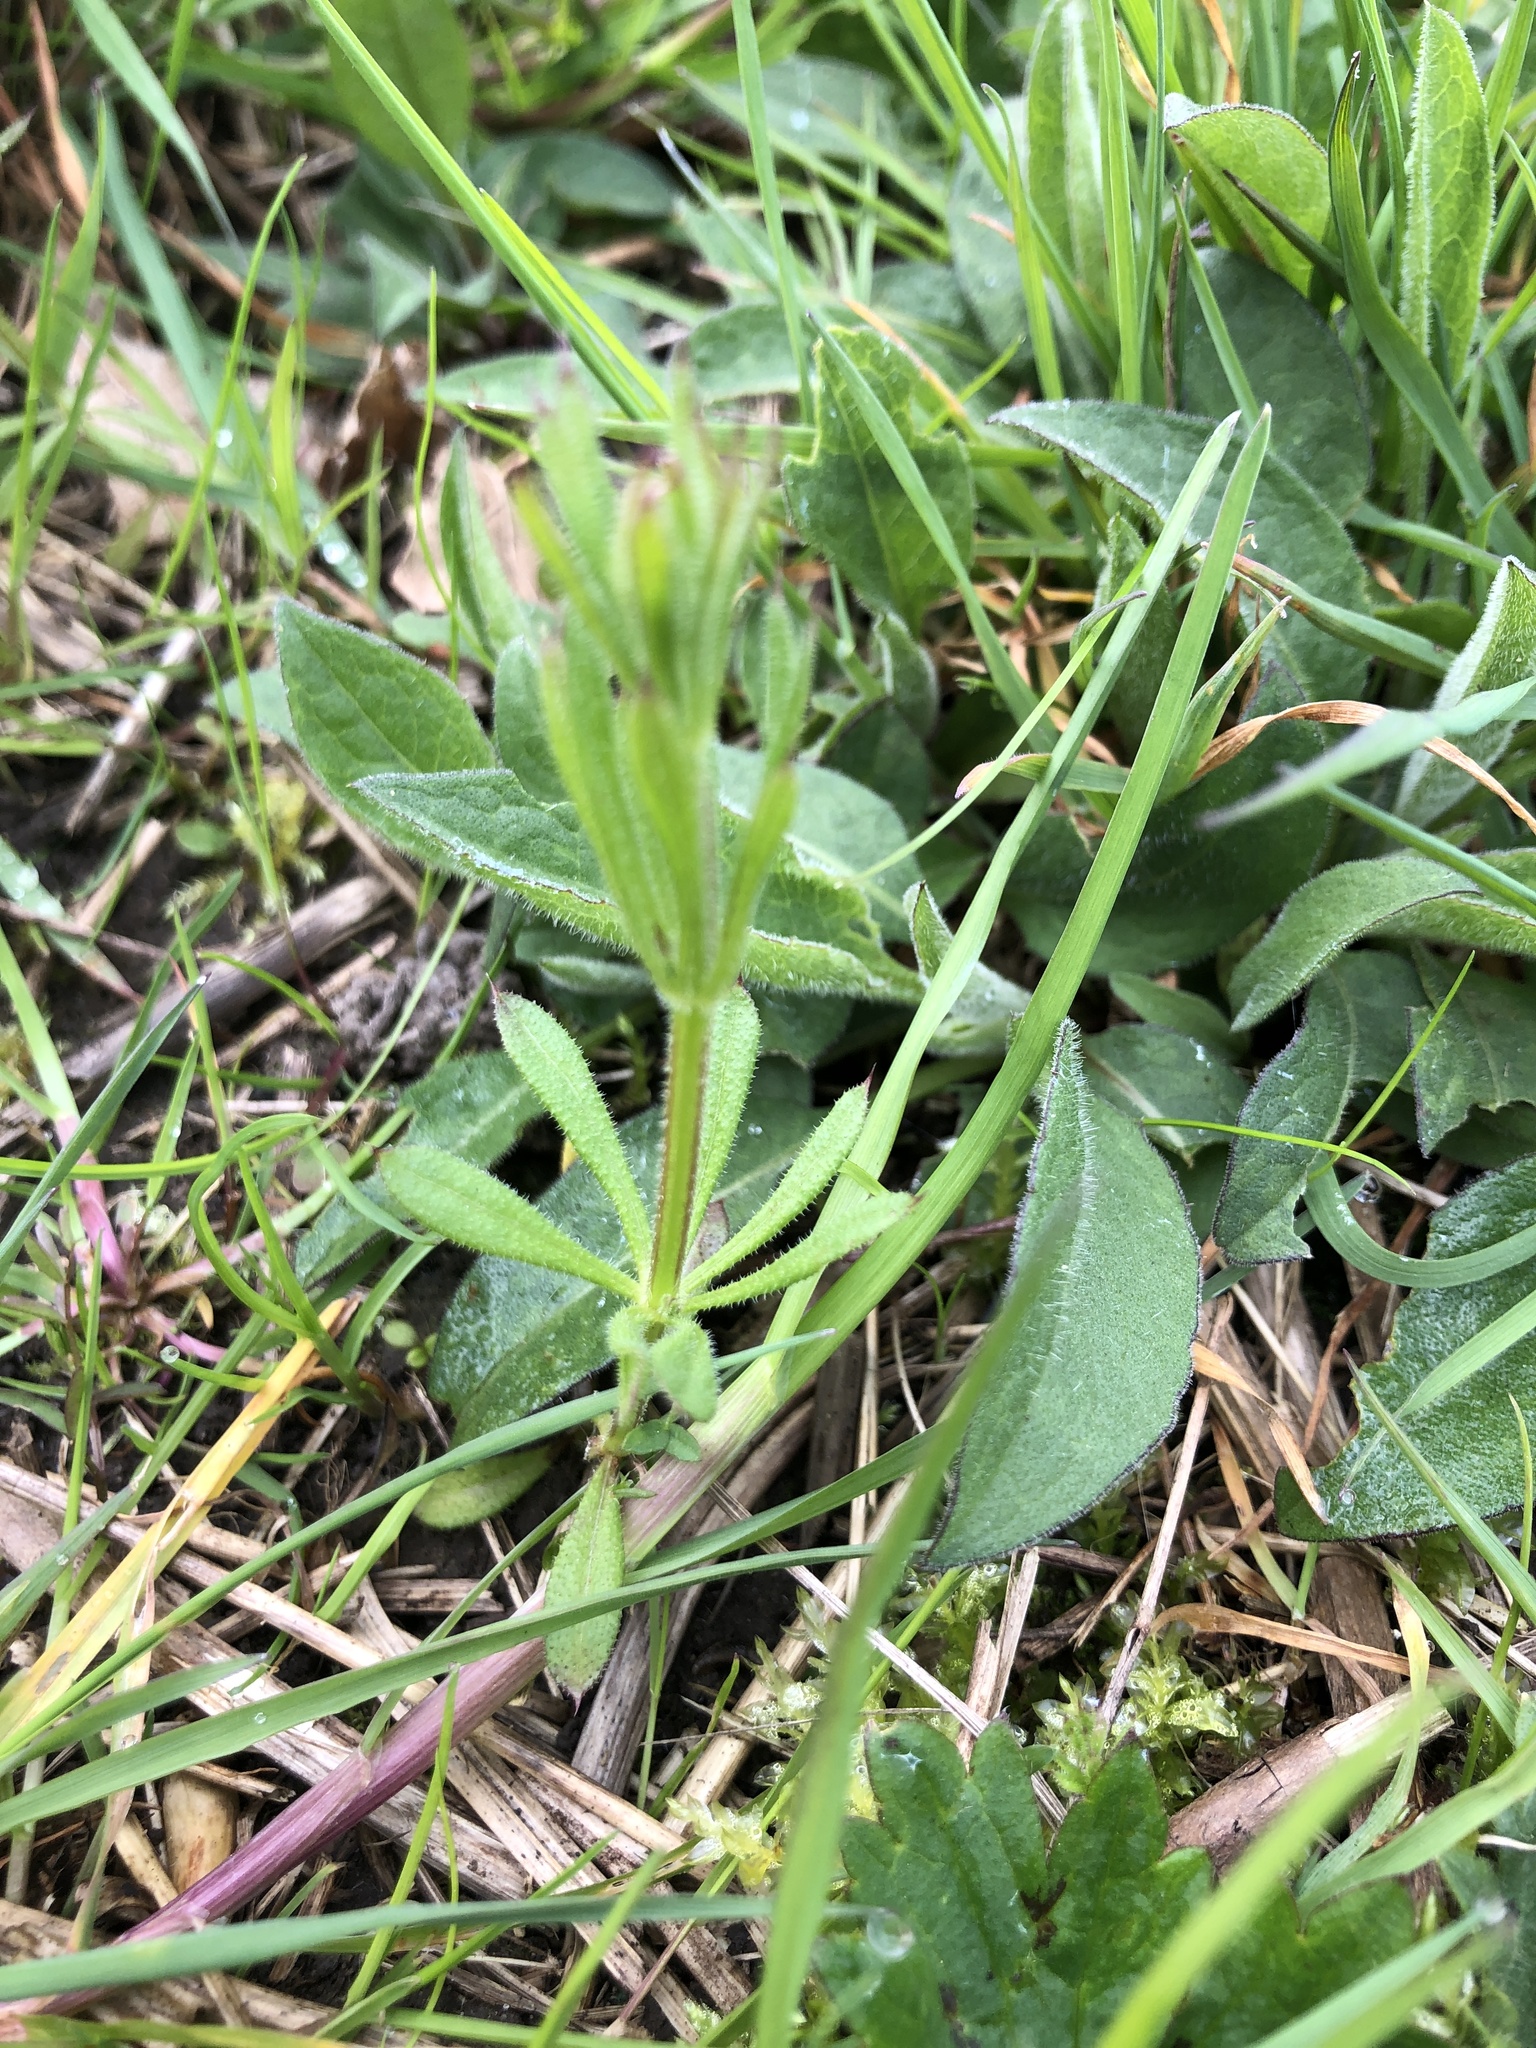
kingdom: Plantae
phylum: Tracheophyta
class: Magnoliopsida
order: Gentianales
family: Rubiaceae
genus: Galium
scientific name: Galium aparine
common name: Cleavers
